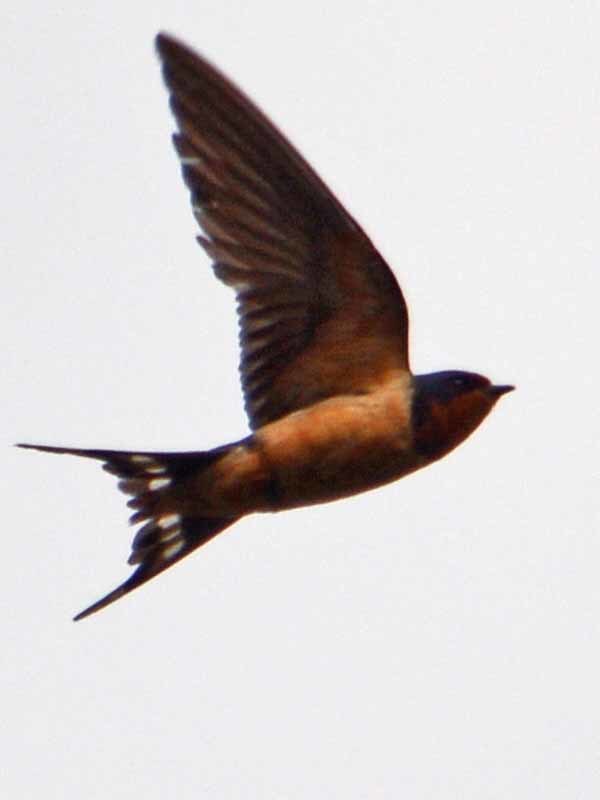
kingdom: Animalia
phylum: Chordata
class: Aves
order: Passeriformes
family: Hirundinidae
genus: Hirundo
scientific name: Hirundo rustica
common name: Barn swallow
